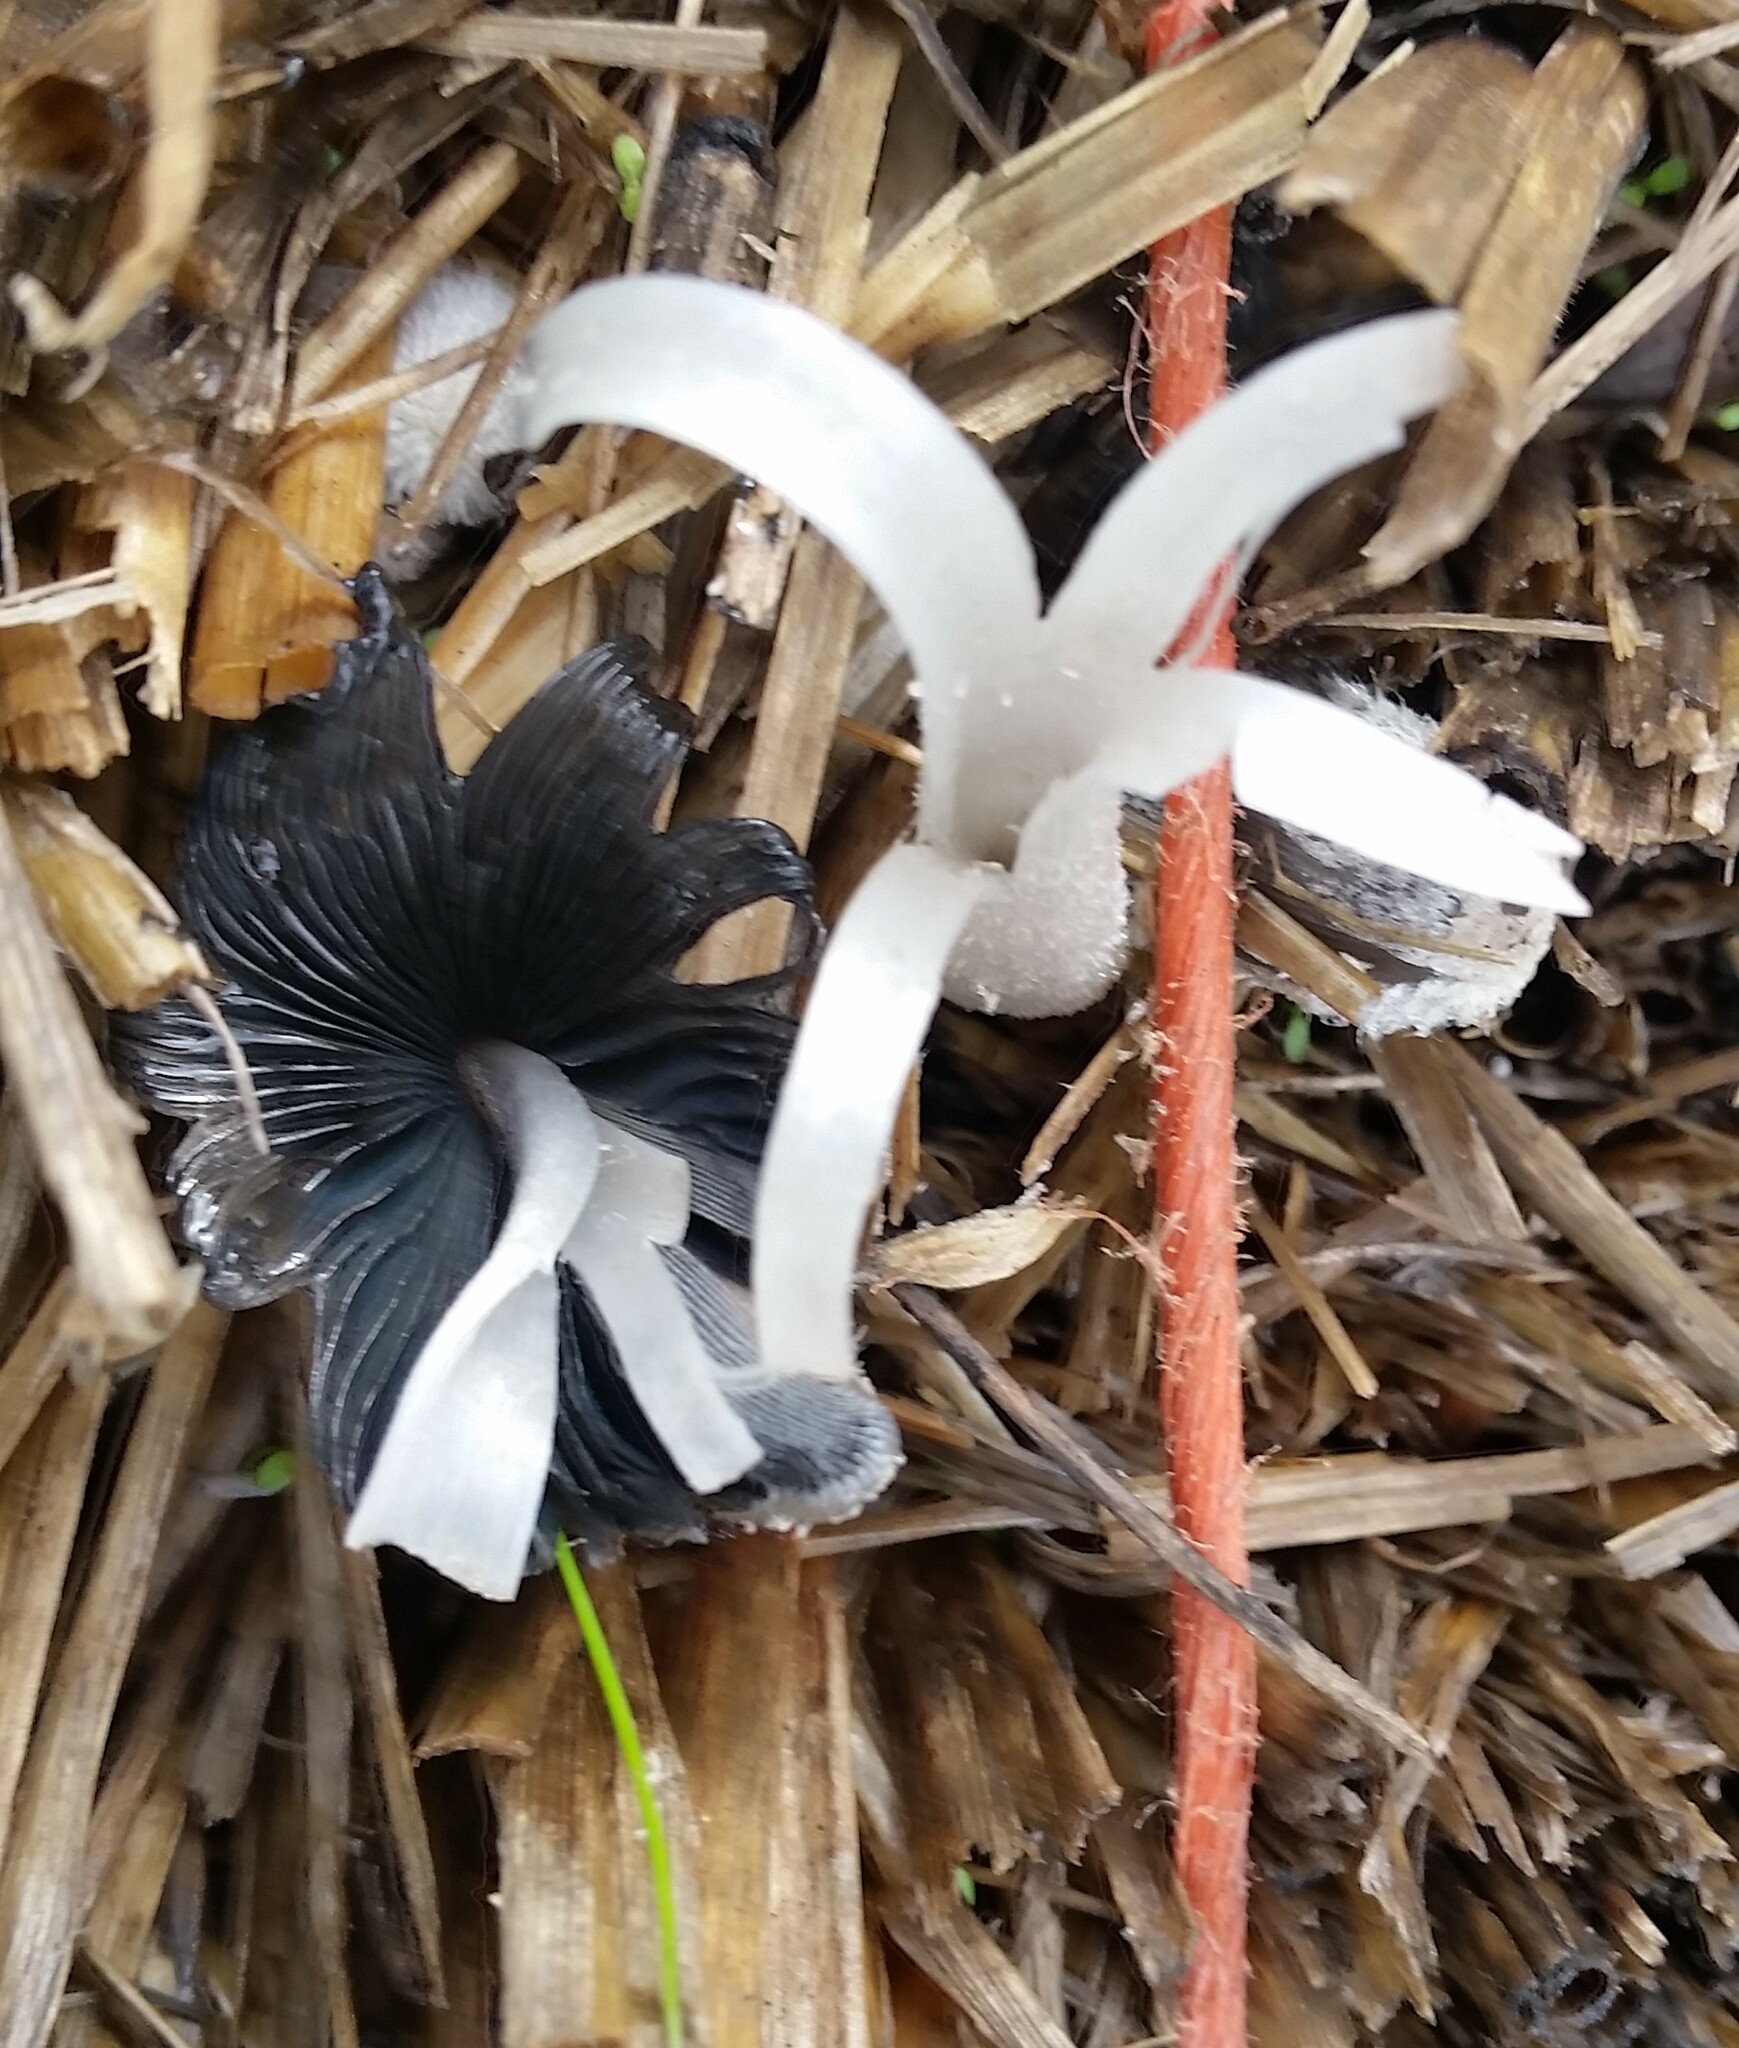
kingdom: Fungi
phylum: Basidiomycota
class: Agaricomycetes
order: Agaricales
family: Psathyrellaceae
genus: Coprinopsis
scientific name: Coprinopsis lagopus
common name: Hare'sfoot inkcap
